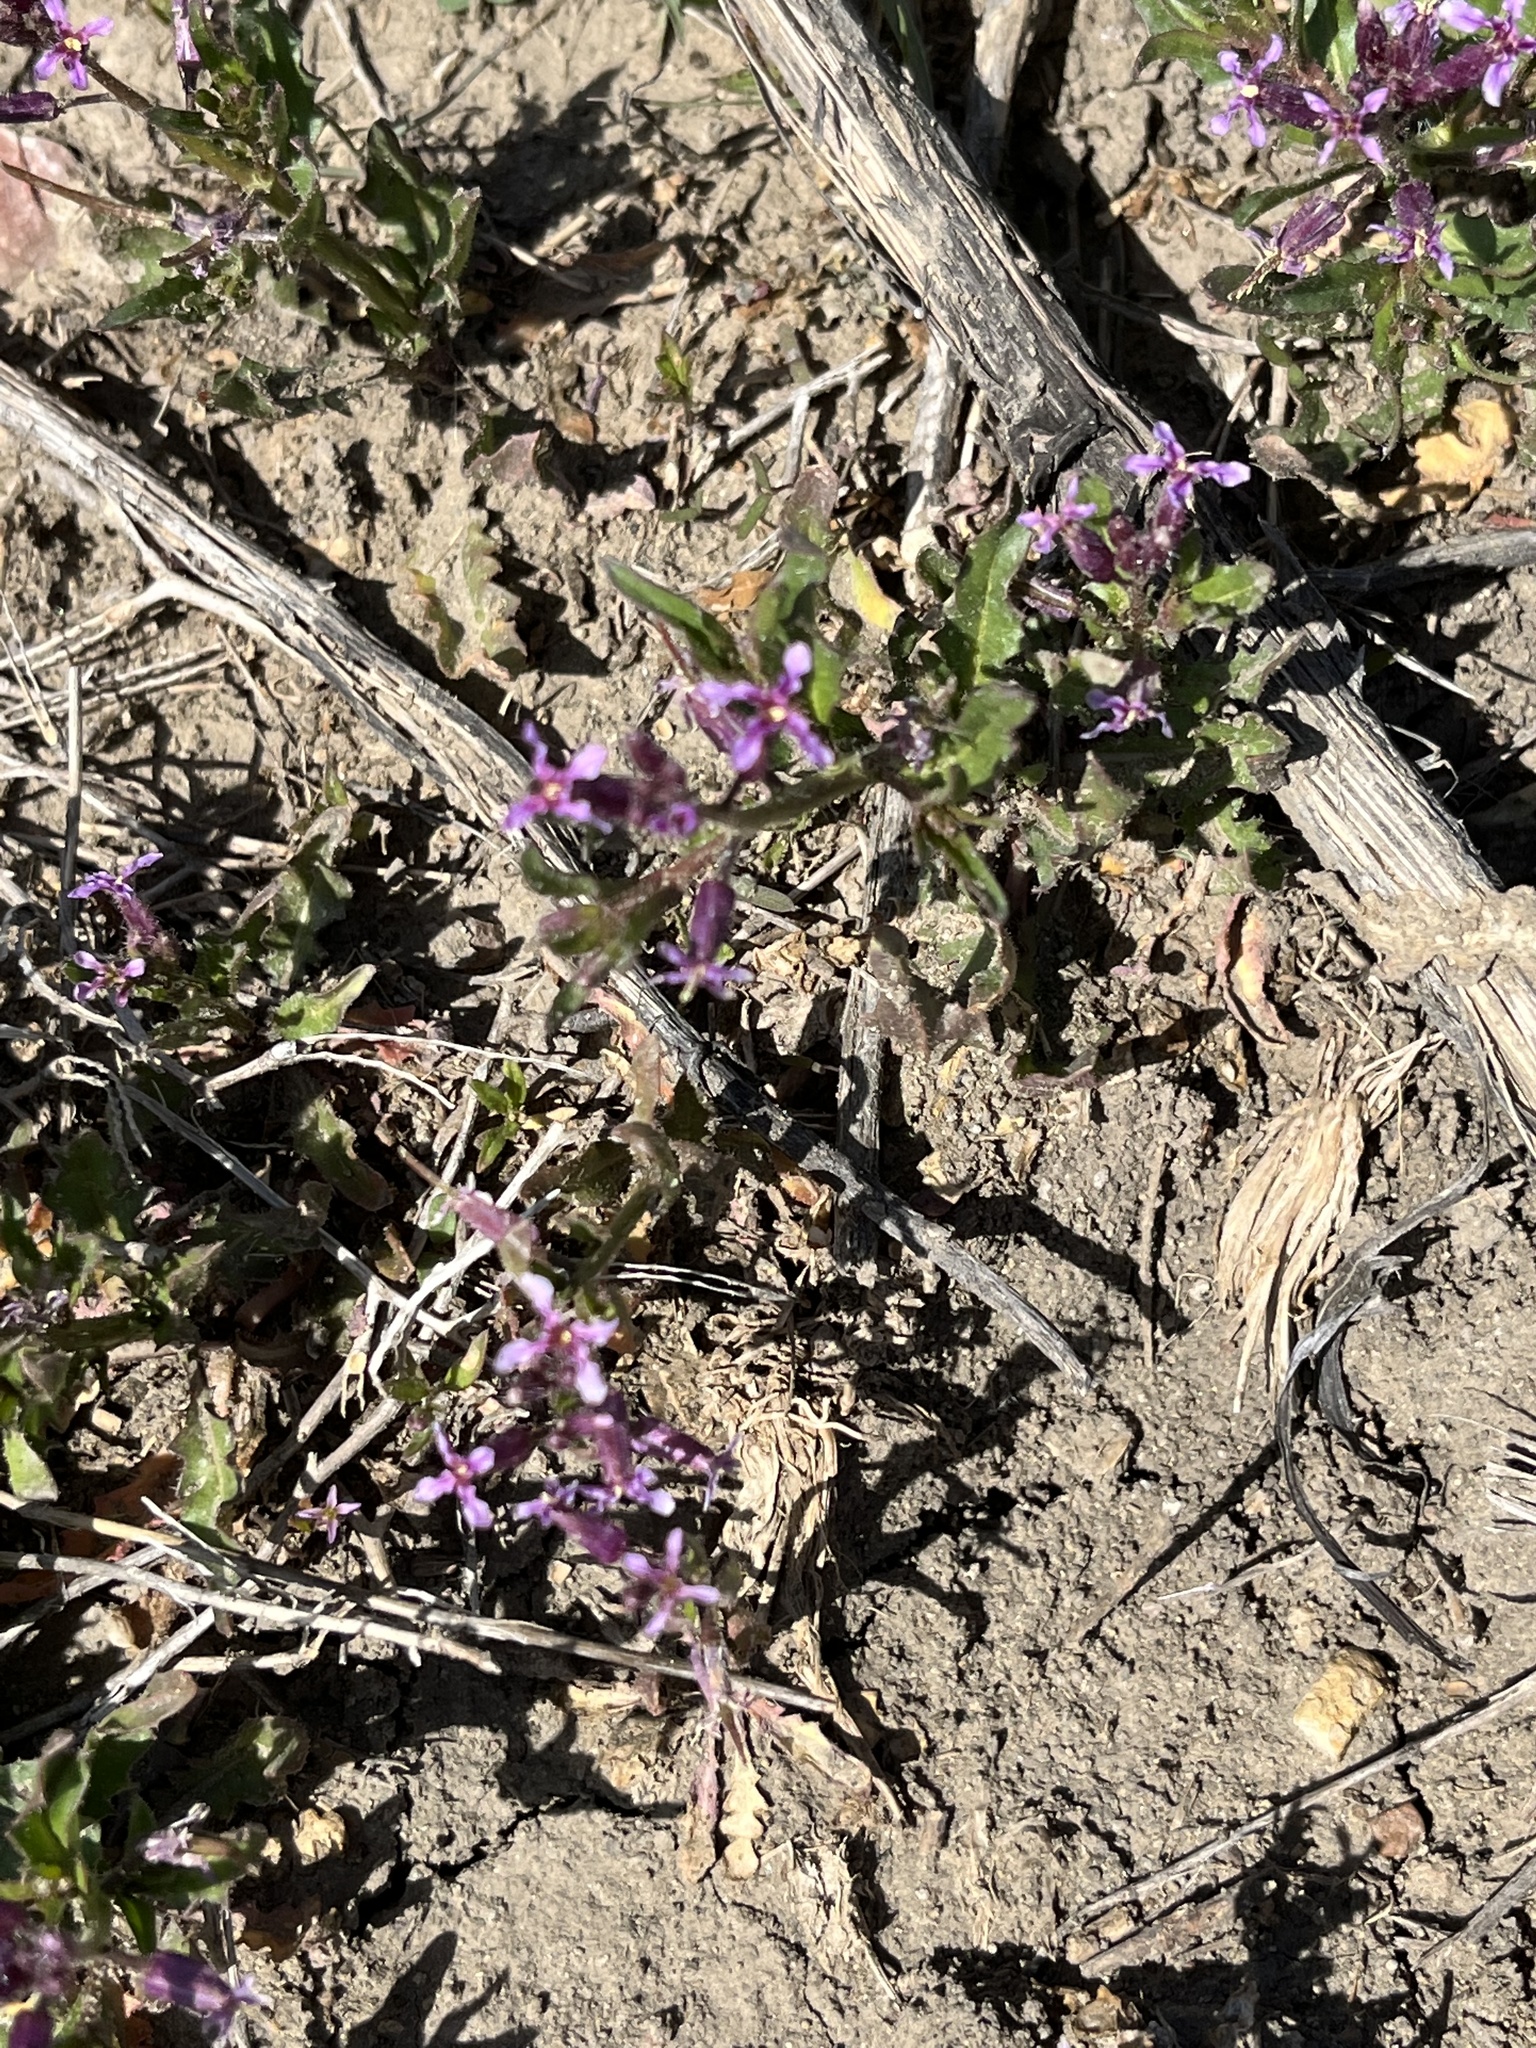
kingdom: Plantae
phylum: Tracheophyta
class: Magnoliopsida
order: Brassicales
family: Brassicaceae
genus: Chorispora
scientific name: Chorispora tenella
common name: Crossflower
